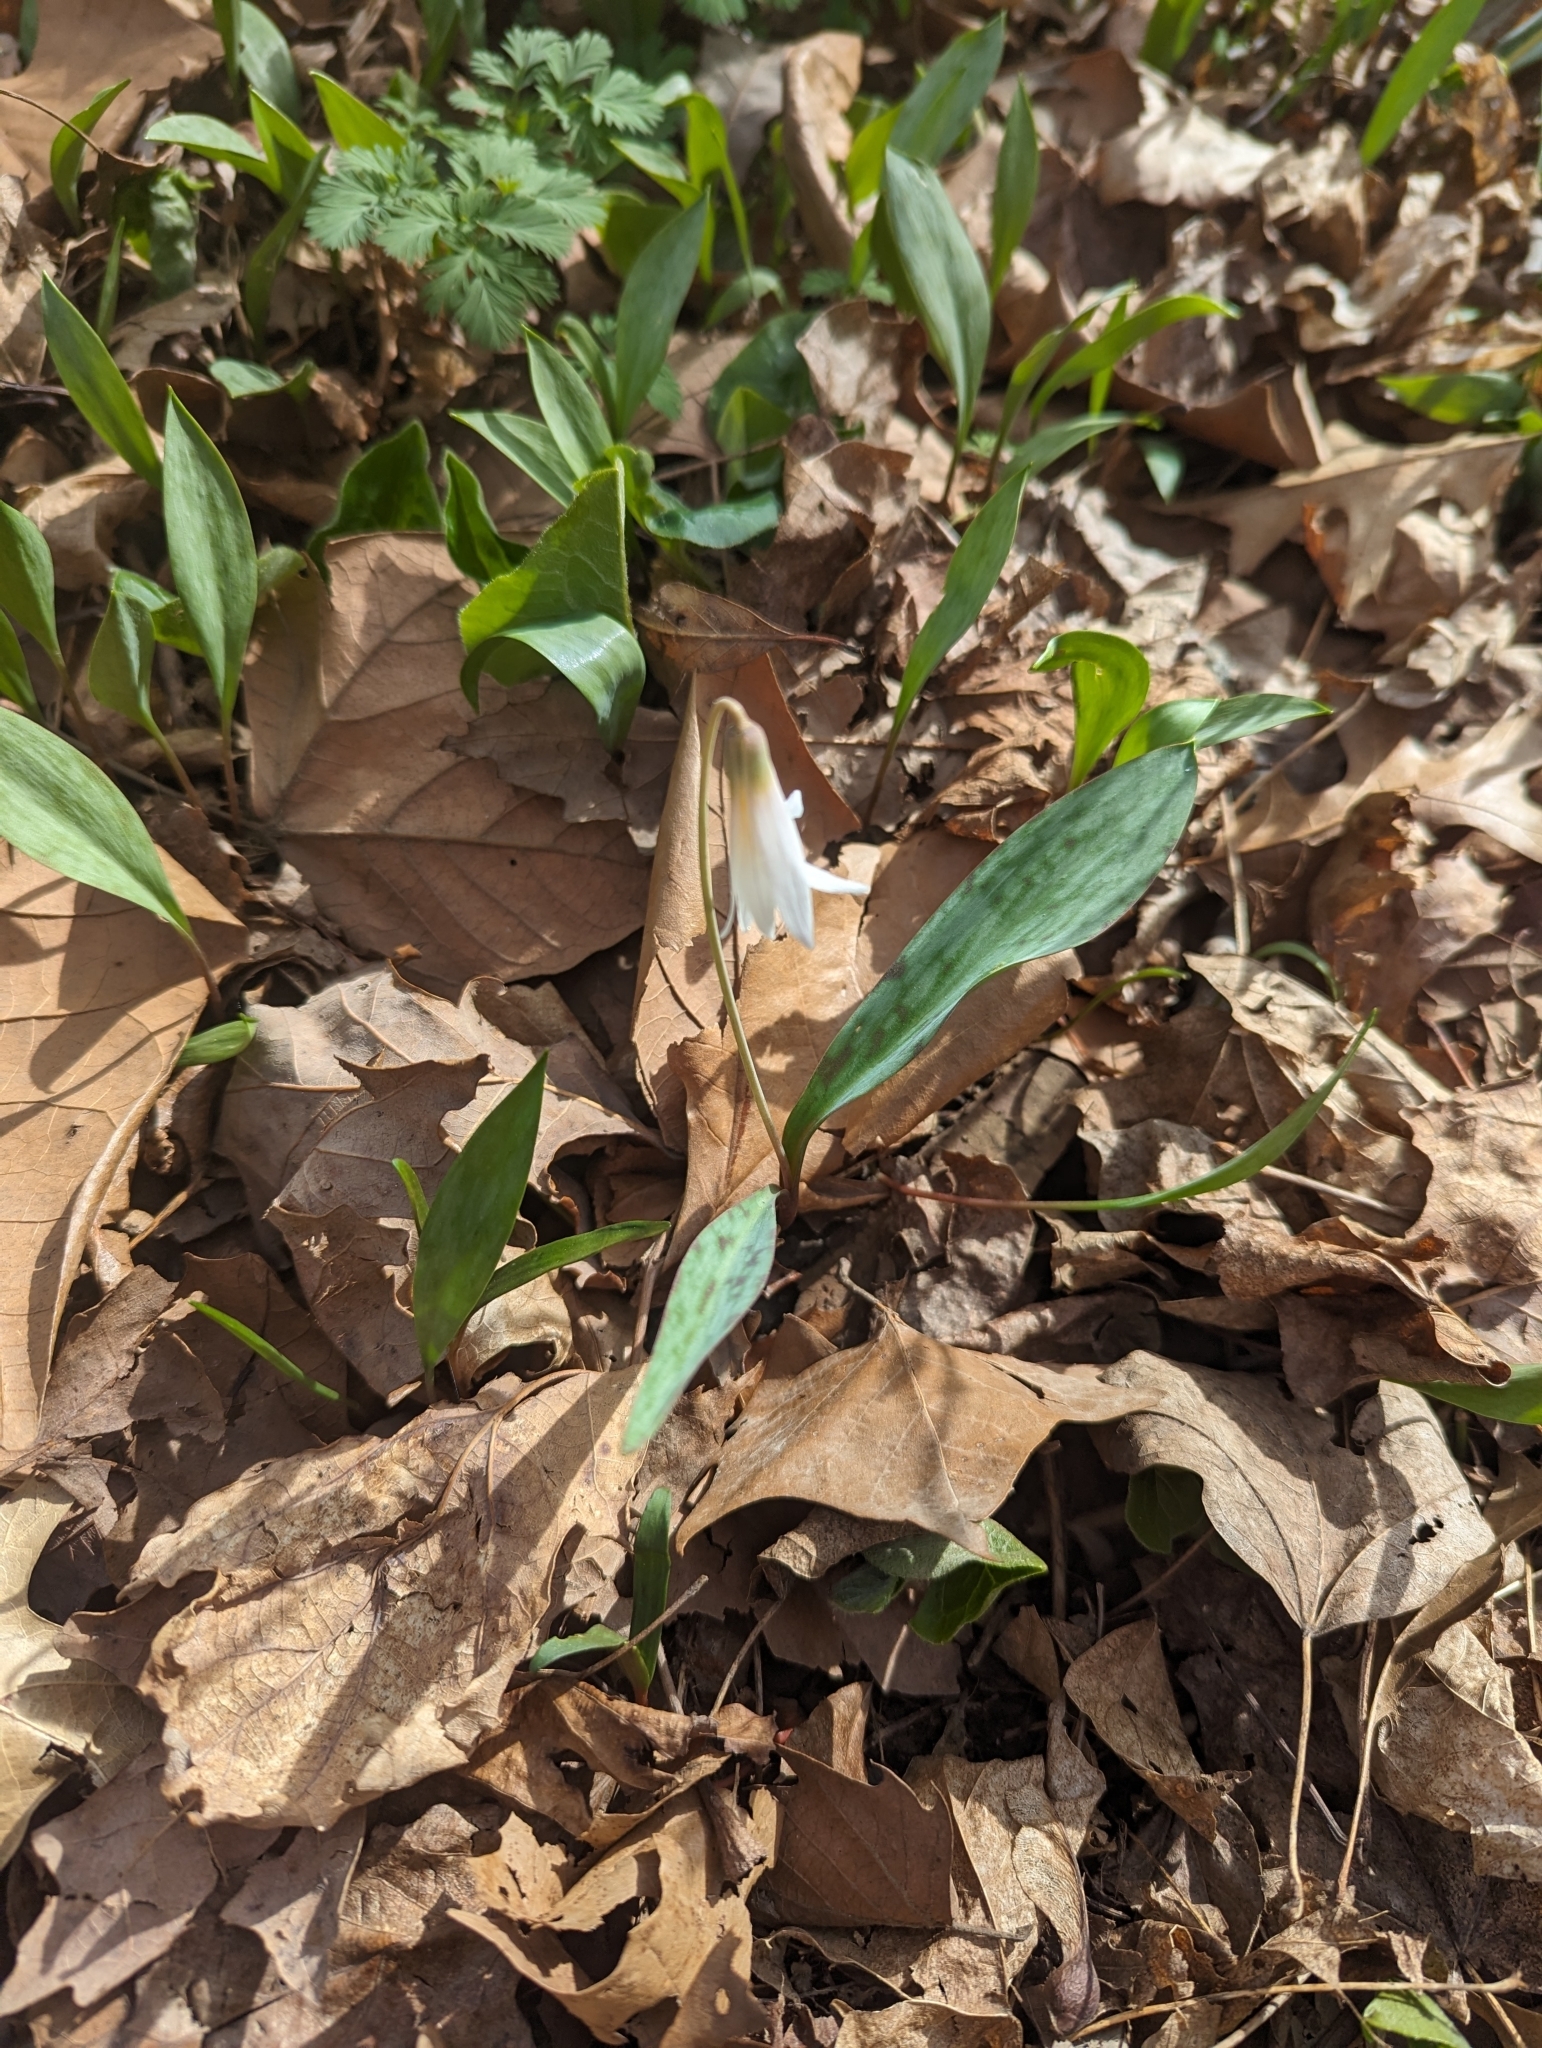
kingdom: Plantae
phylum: Tracheophyta
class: Liliopsida
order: Liliales
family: Liliaceae
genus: Erythronium
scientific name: Erythronium albidum
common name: White trout-lily
